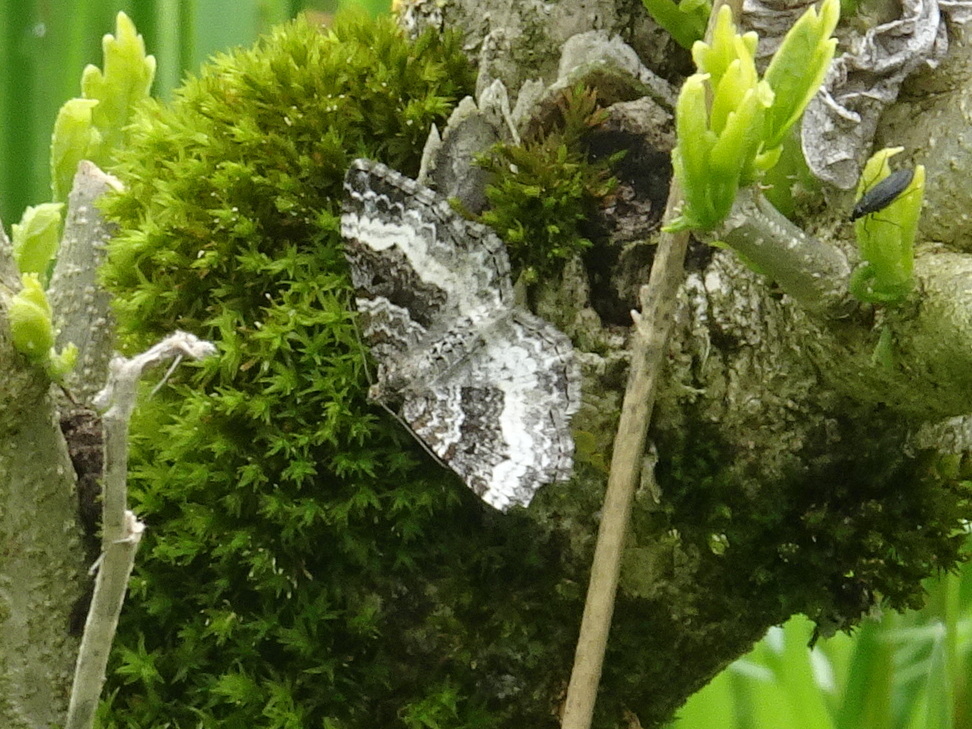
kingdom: Animalia
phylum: Arthropoda
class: Insecta
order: Lepidoptera
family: Geometridae
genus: Epirrhoe
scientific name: Epirrhoe alternata
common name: Common carpet
